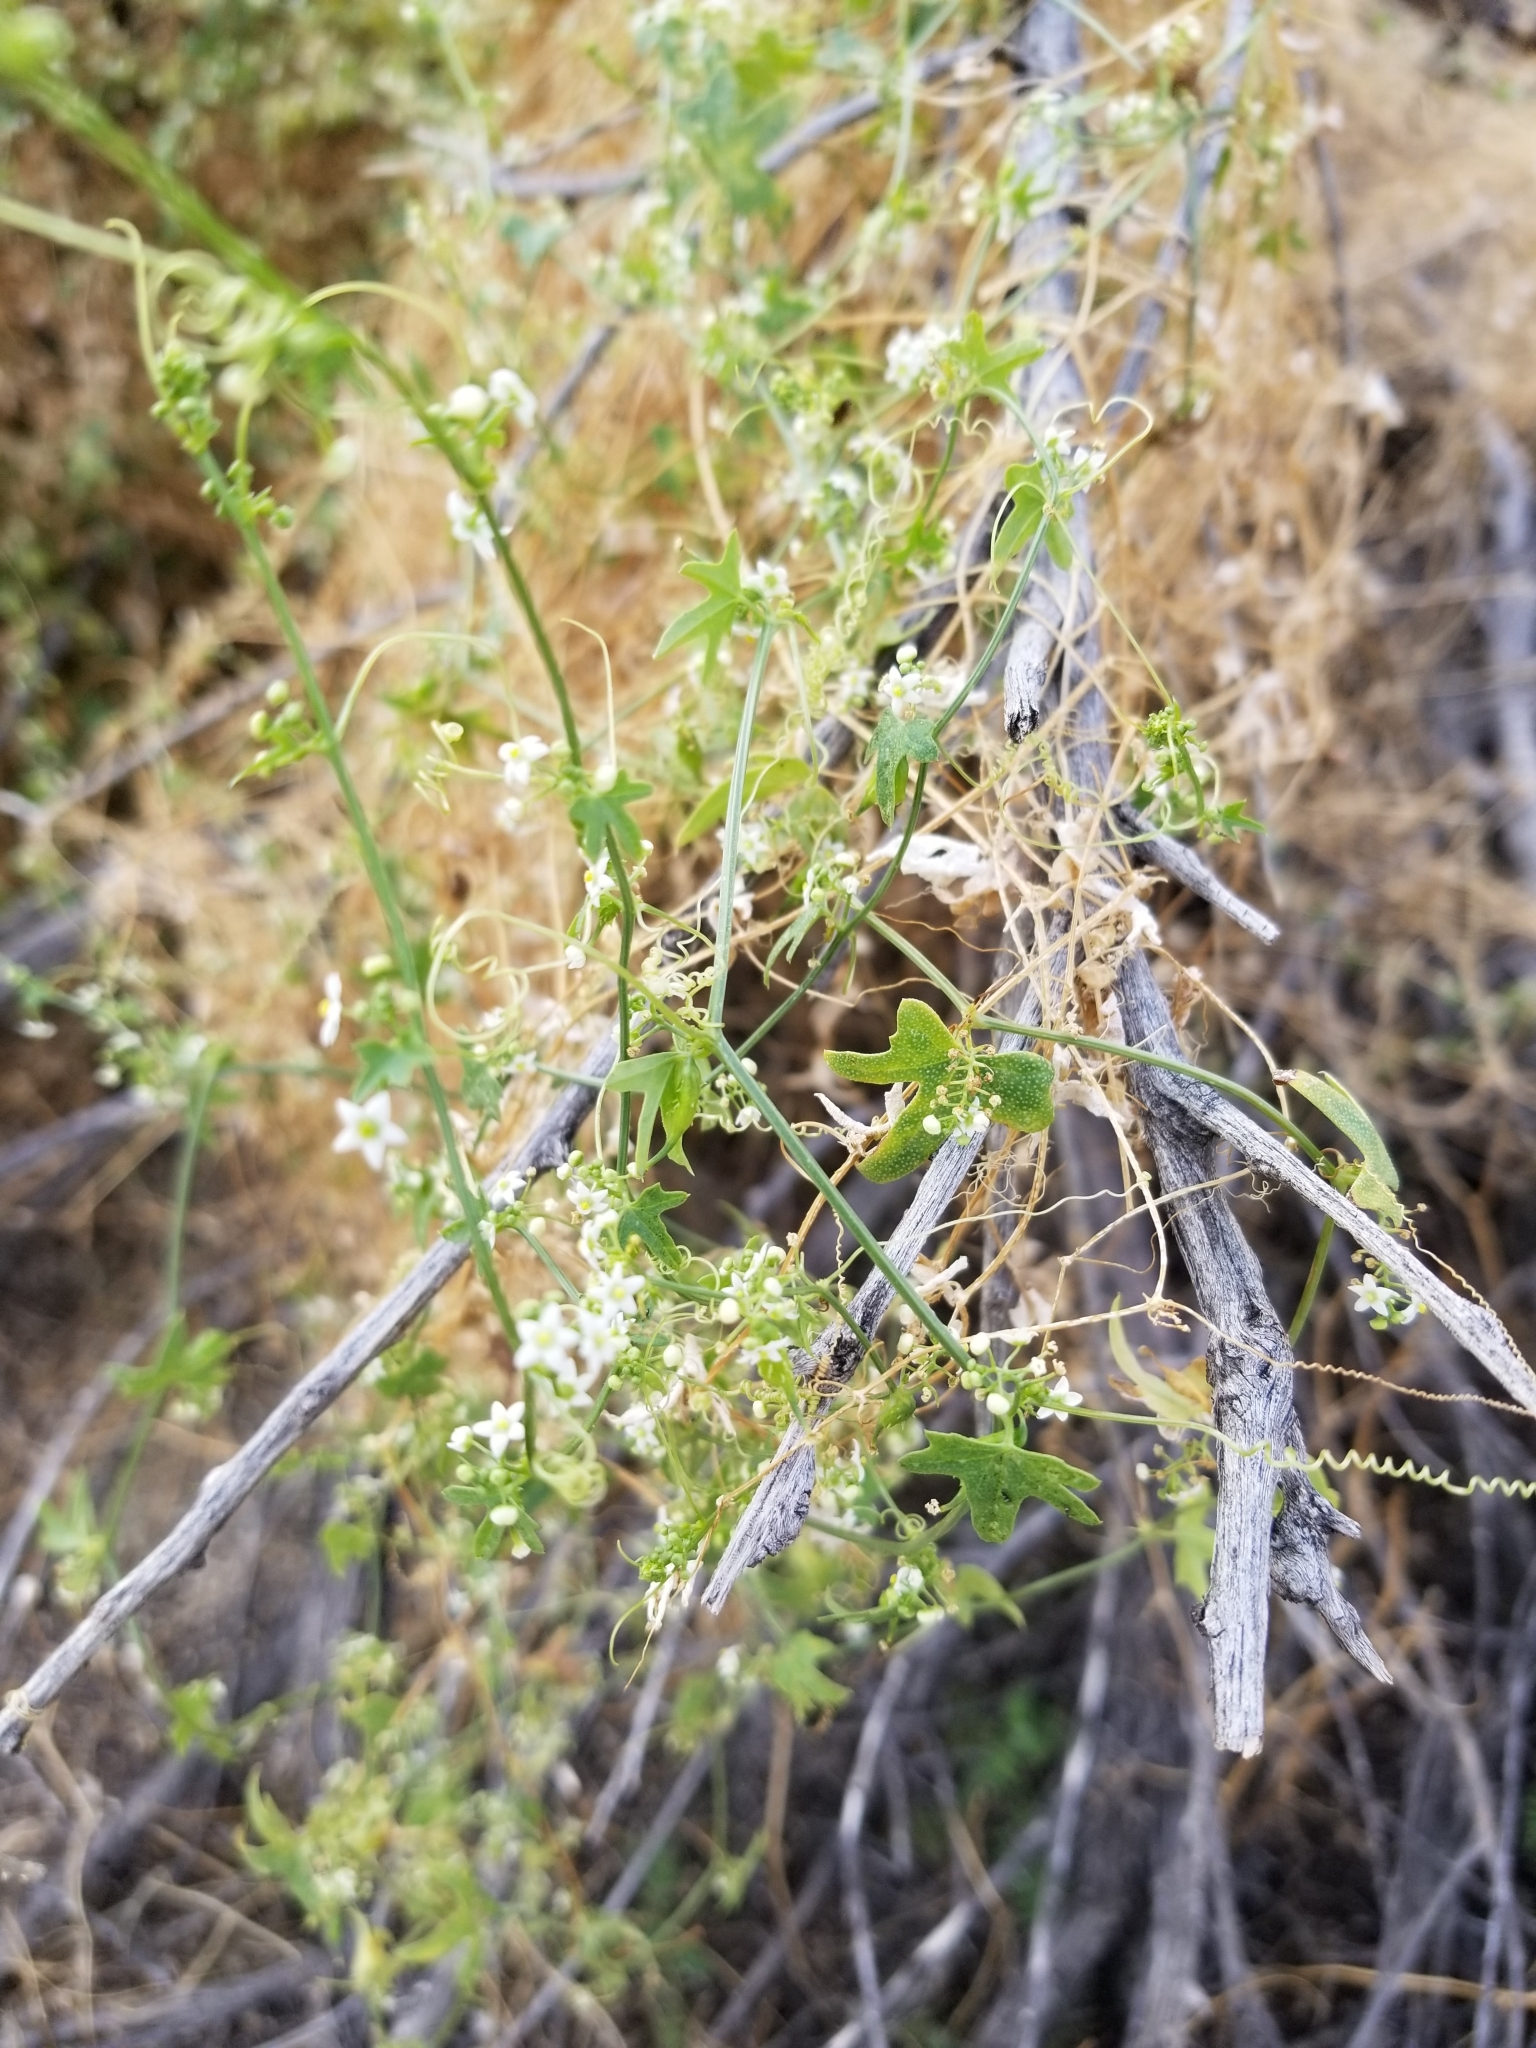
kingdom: Plantae
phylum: Tracheophyta
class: Magnoliopsida
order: Cucurbitales
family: Cucurbitaceae
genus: Echinopepon
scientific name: Echinopepon bigelovii
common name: Desert starvine
